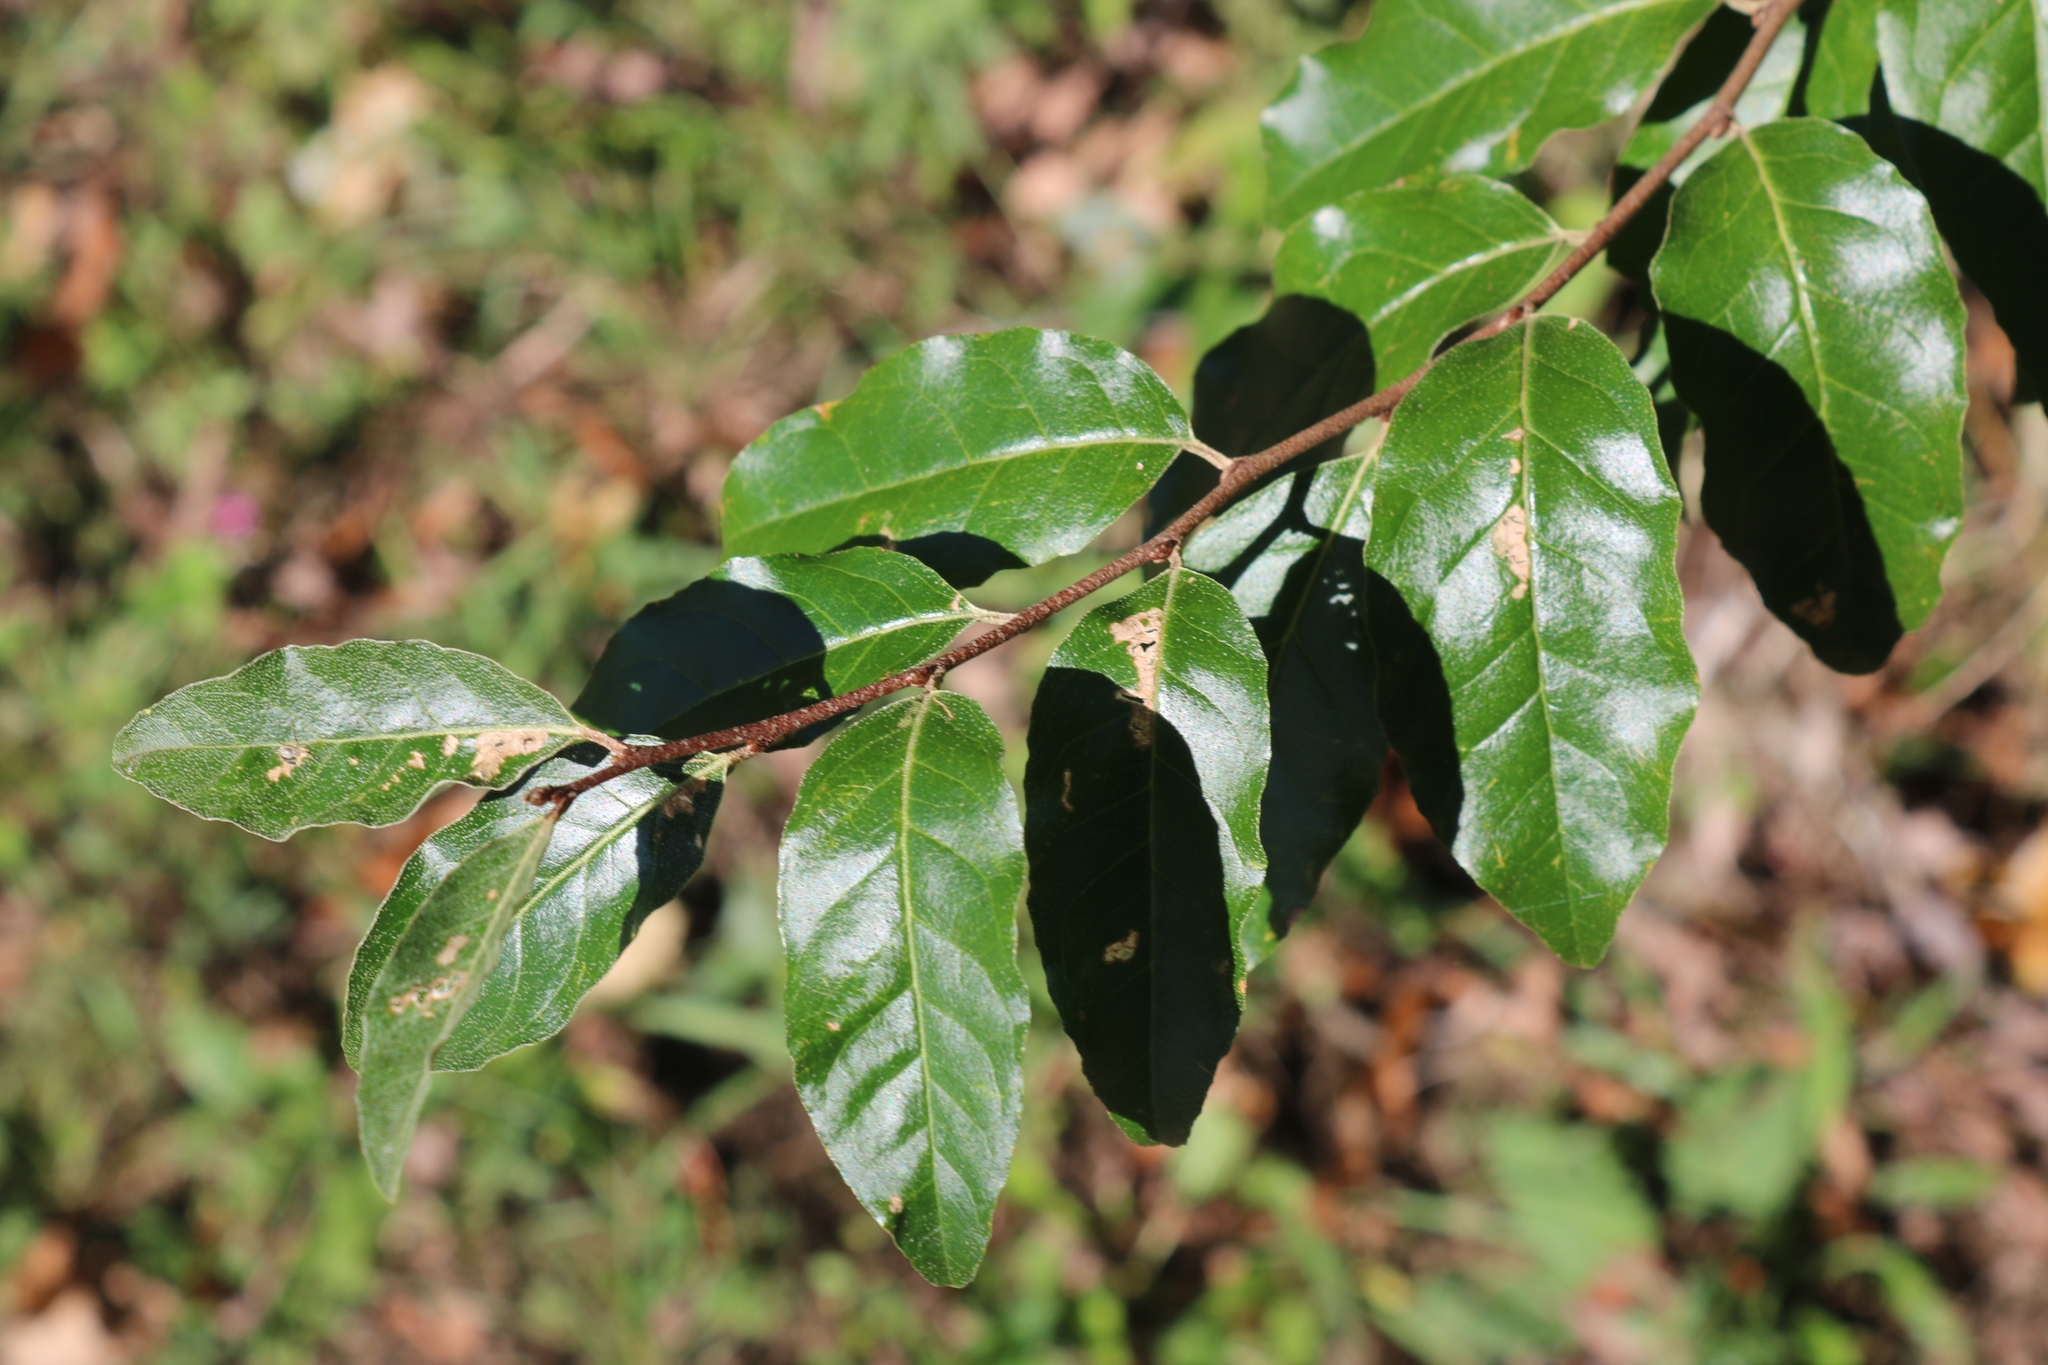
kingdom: Plantae
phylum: Tracheophyta
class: Magnoliopsida
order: Rosales
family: Elaeagnaceae
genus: Elaeagnus
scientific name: Elaeagnus umbellata
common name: Autumn olive
